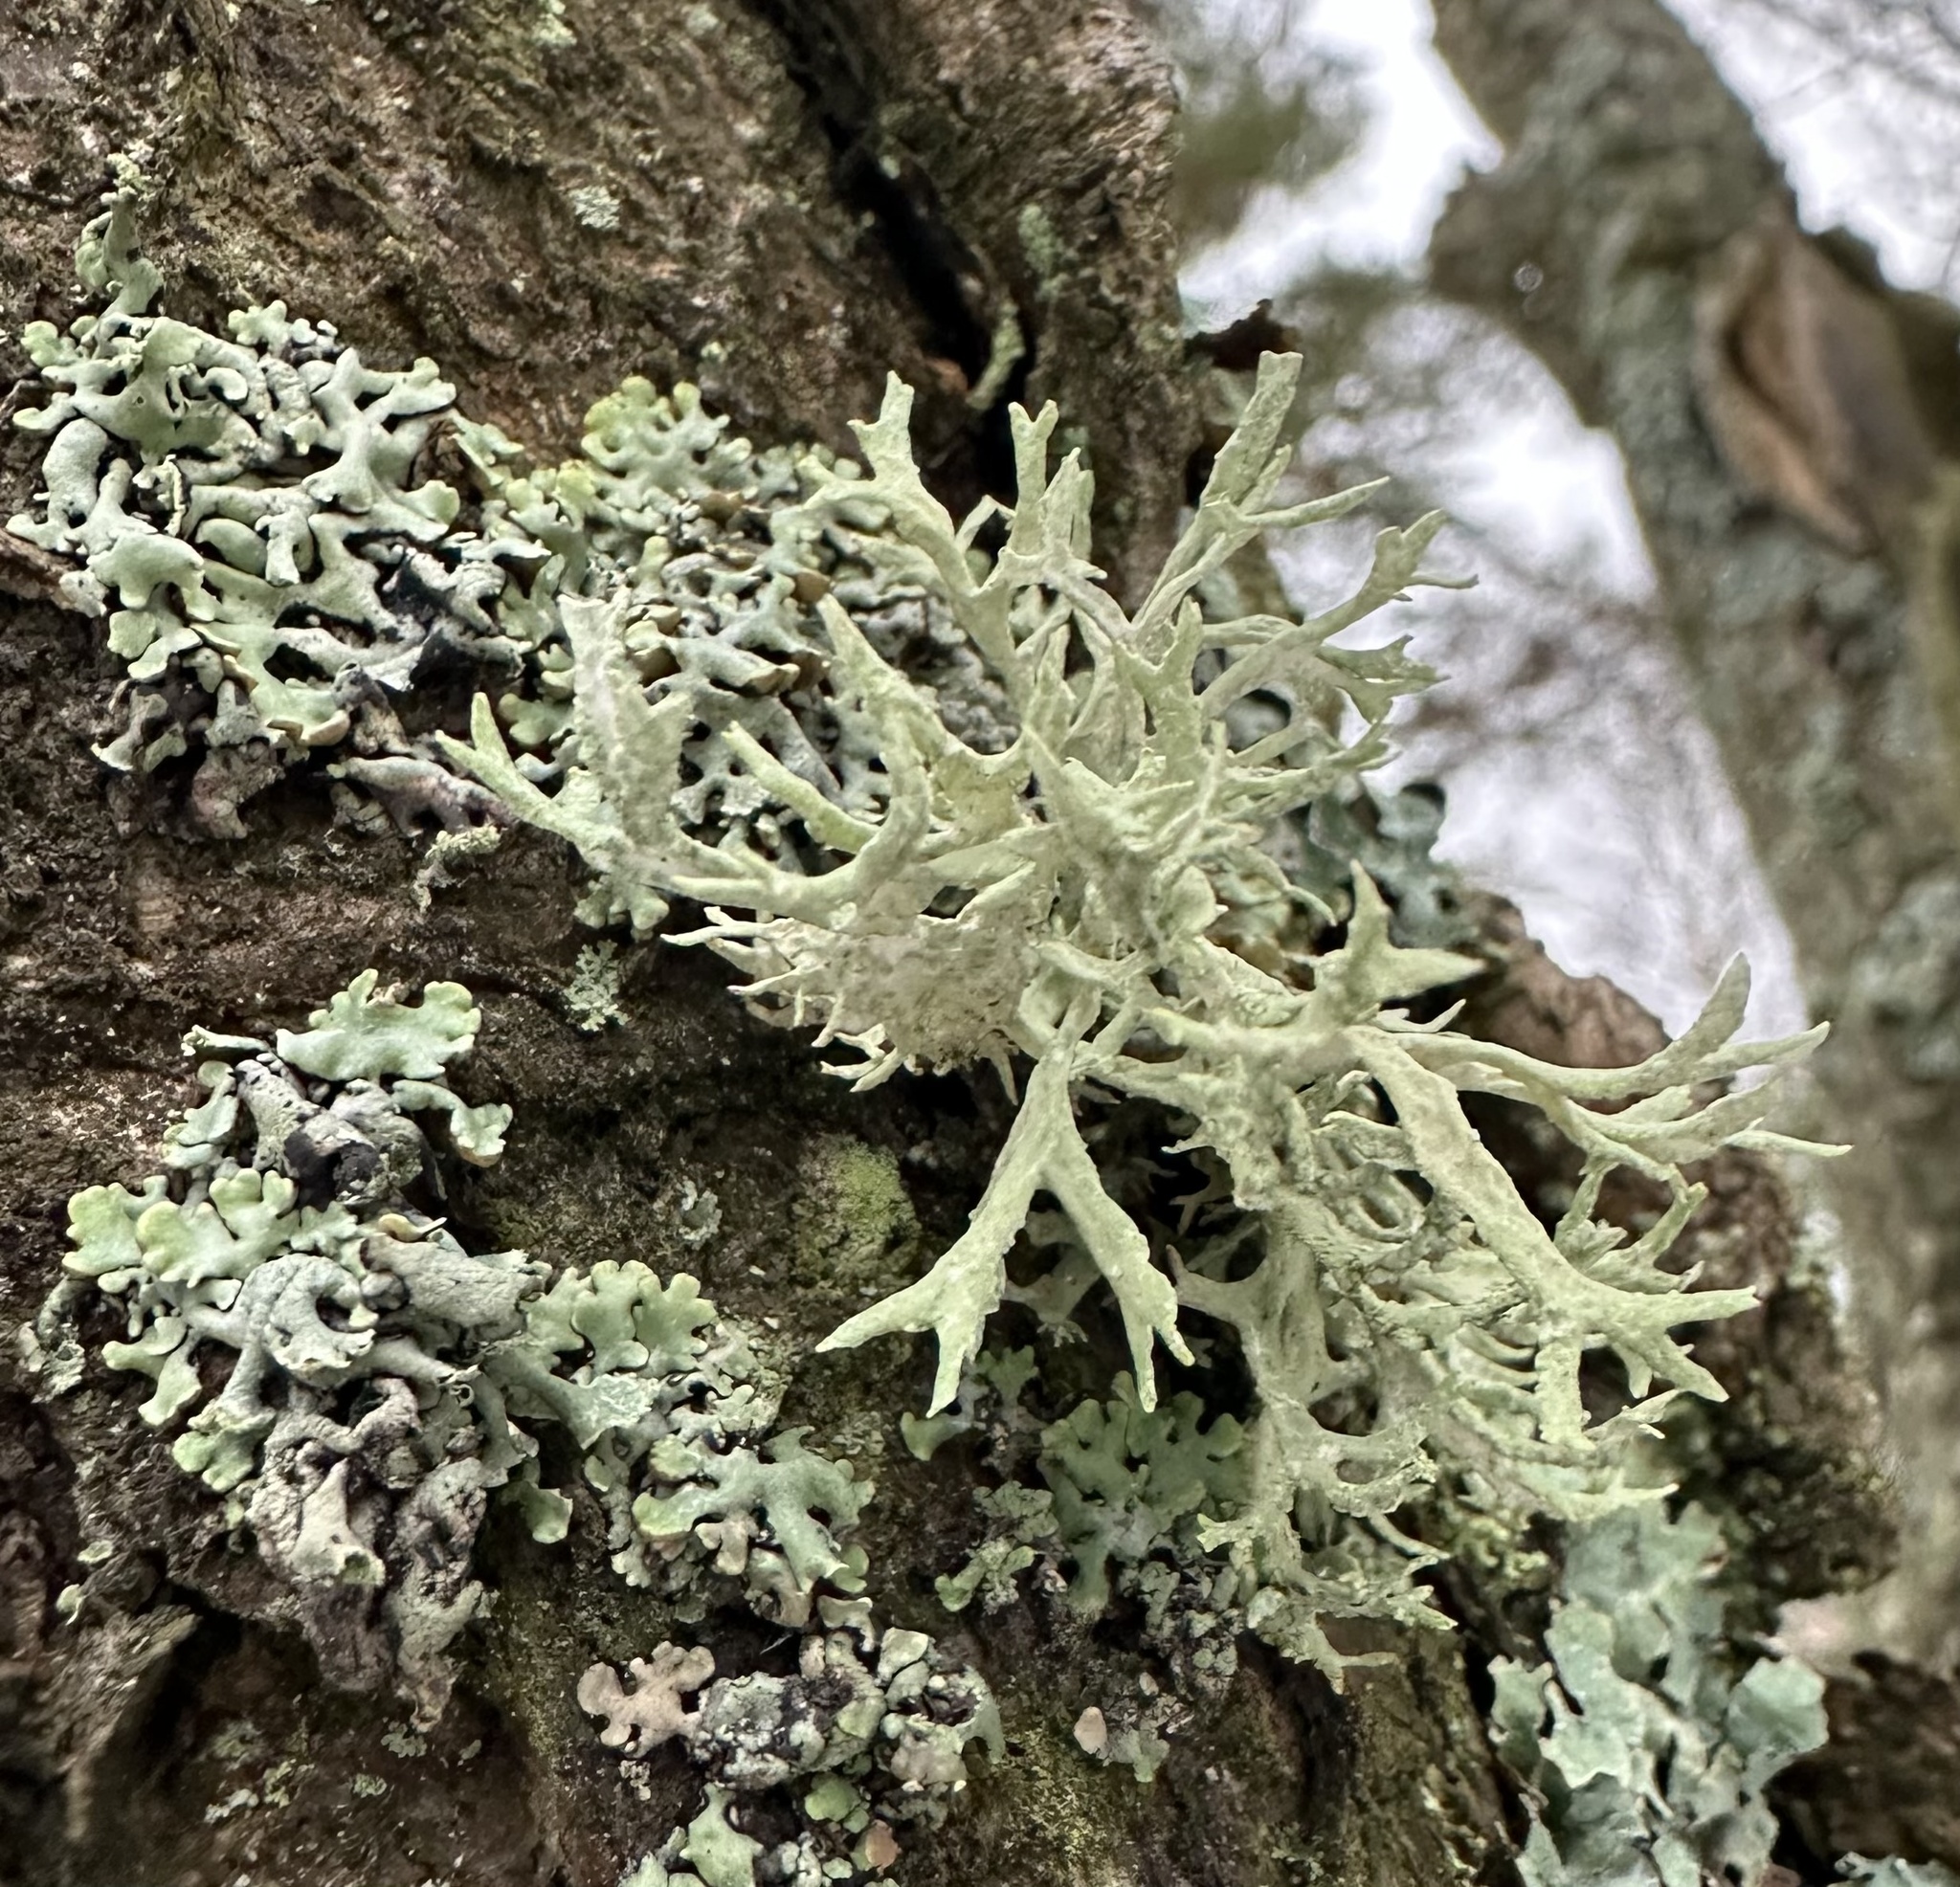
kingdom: Fungi
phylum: Ascomycota
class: Lecanoromycetes
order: Lecanorales
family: Parmeliaceae
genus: Evernia
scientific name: Evernia prunastri
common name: Oak moss
